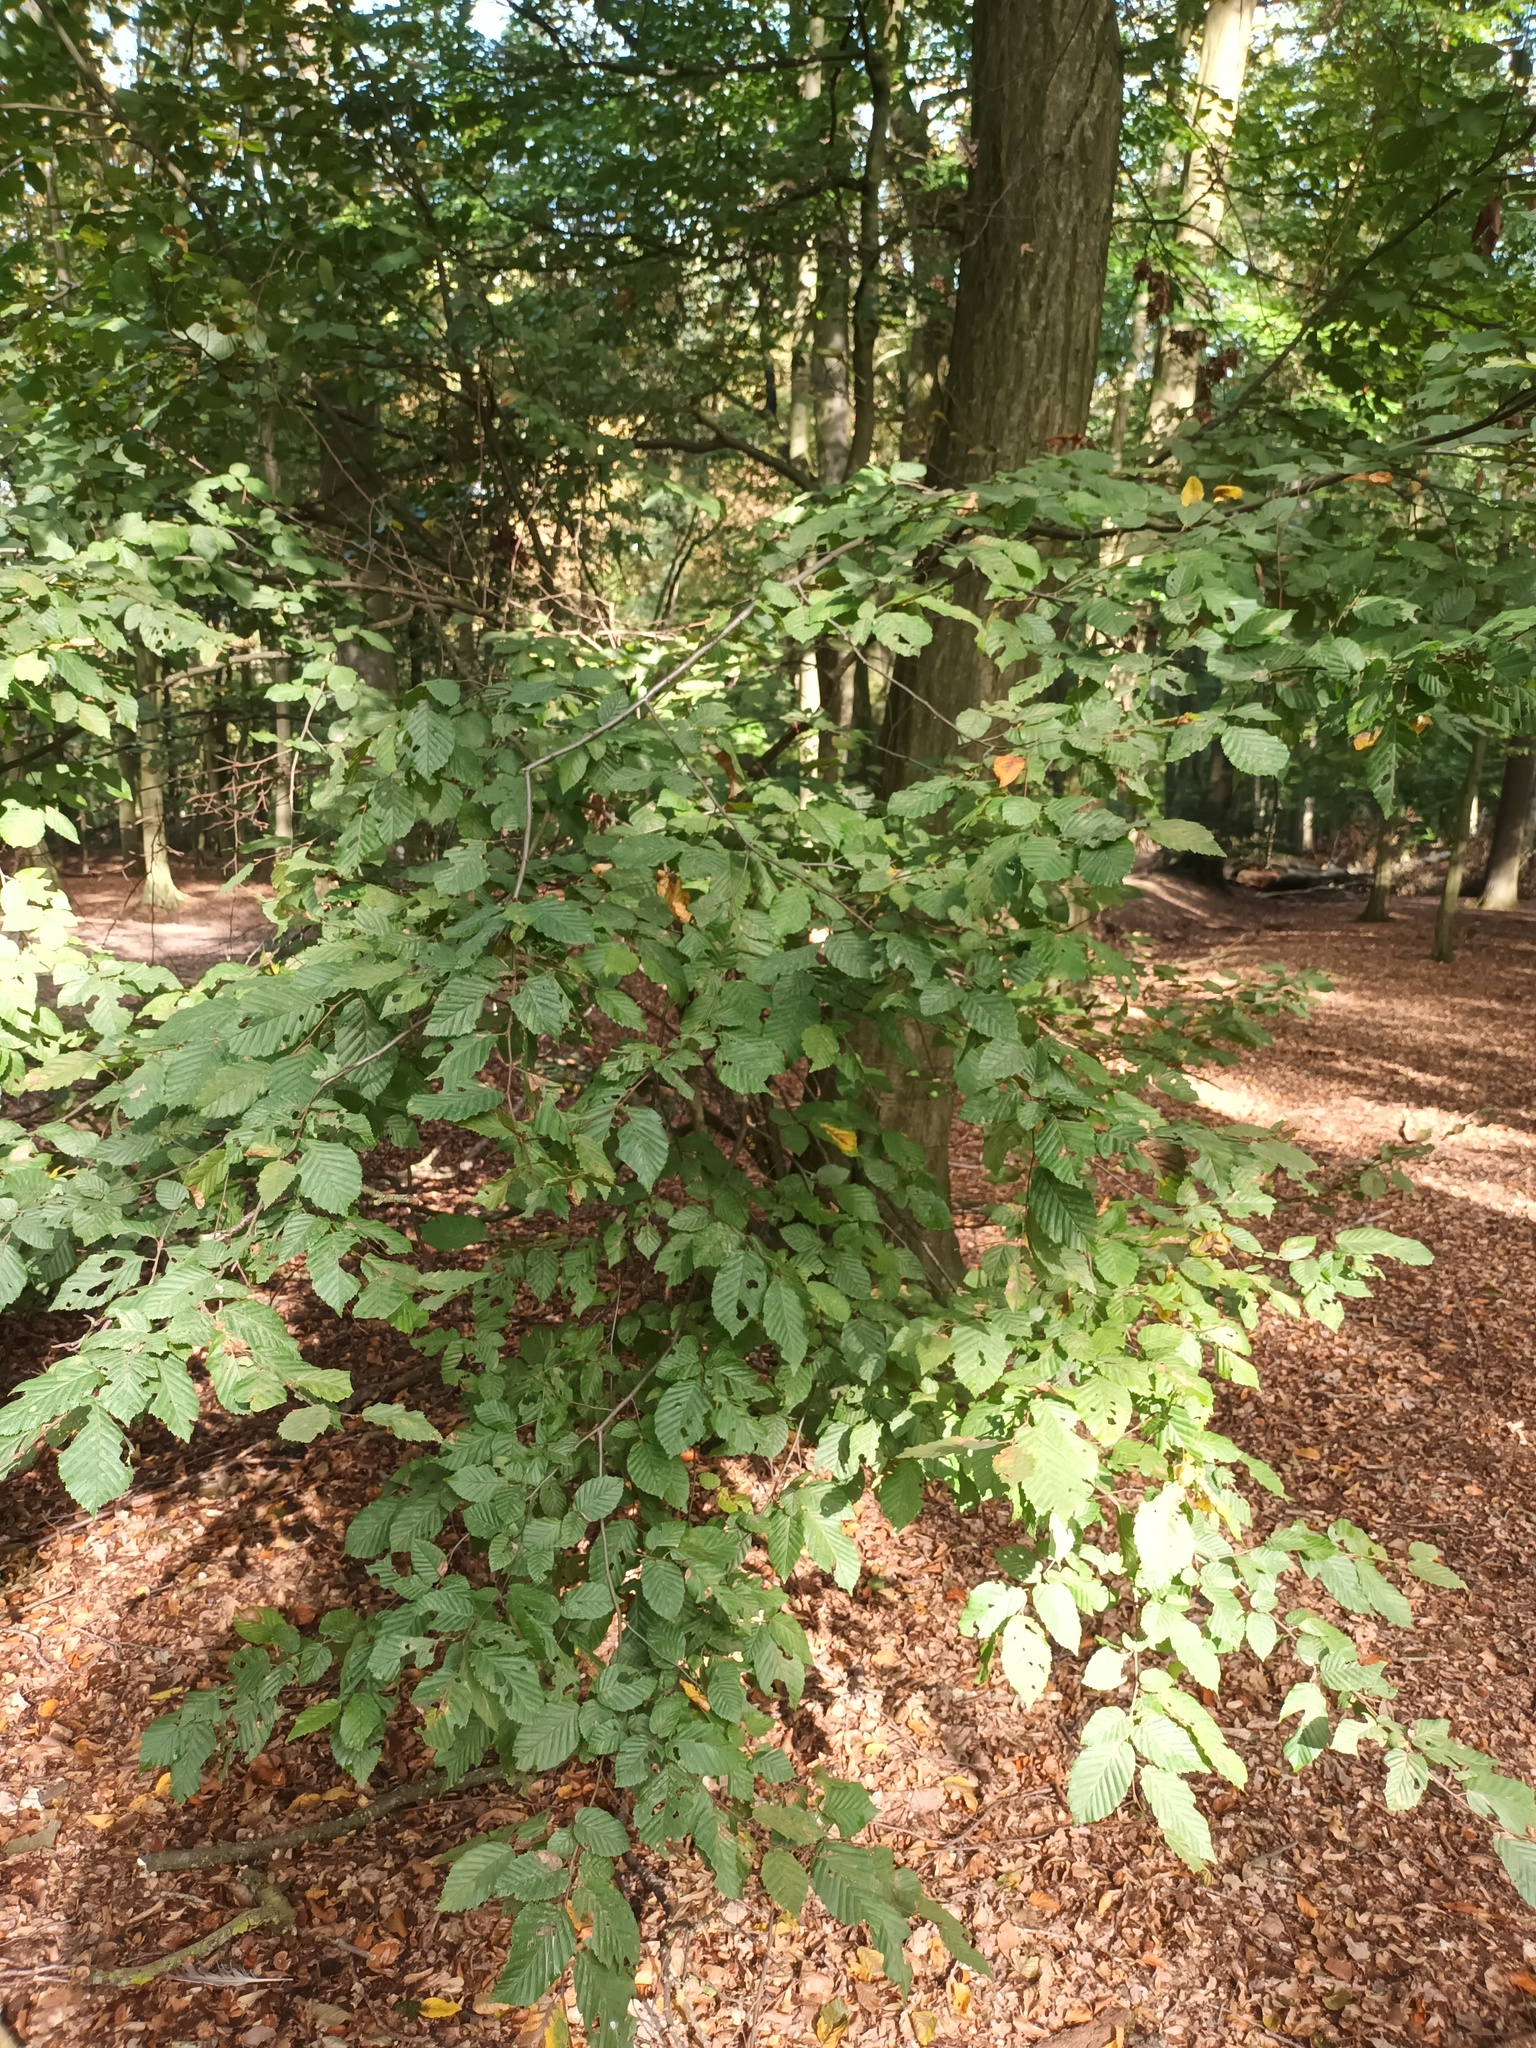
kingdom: Plantae
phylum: Tracheophyta
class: Magnoliopsida
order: Fagales
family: Betulaceae
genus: Carpinus
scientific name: Carpinus betulus
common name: Hornbeam
